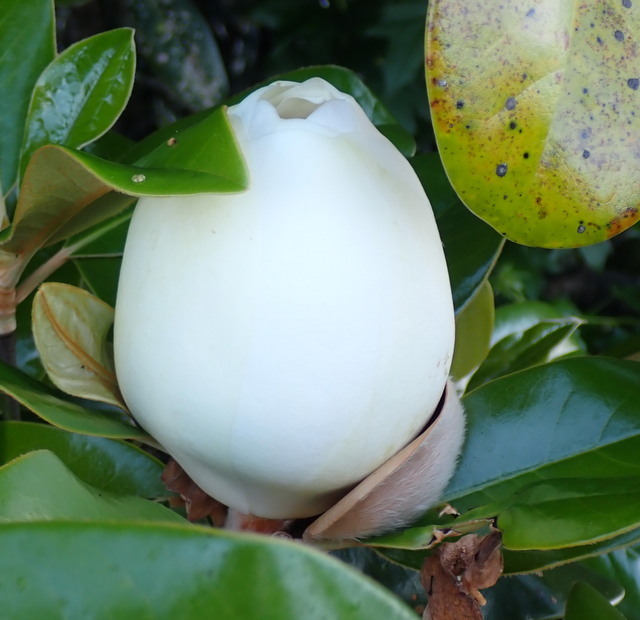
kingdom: Plantae
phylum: Tracheophyta
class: Magnoliopsida
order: Magnoliales
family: Magnoliaceae
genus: Magnolia
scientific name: Magnolia grandiflora
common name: Southern magnolia
